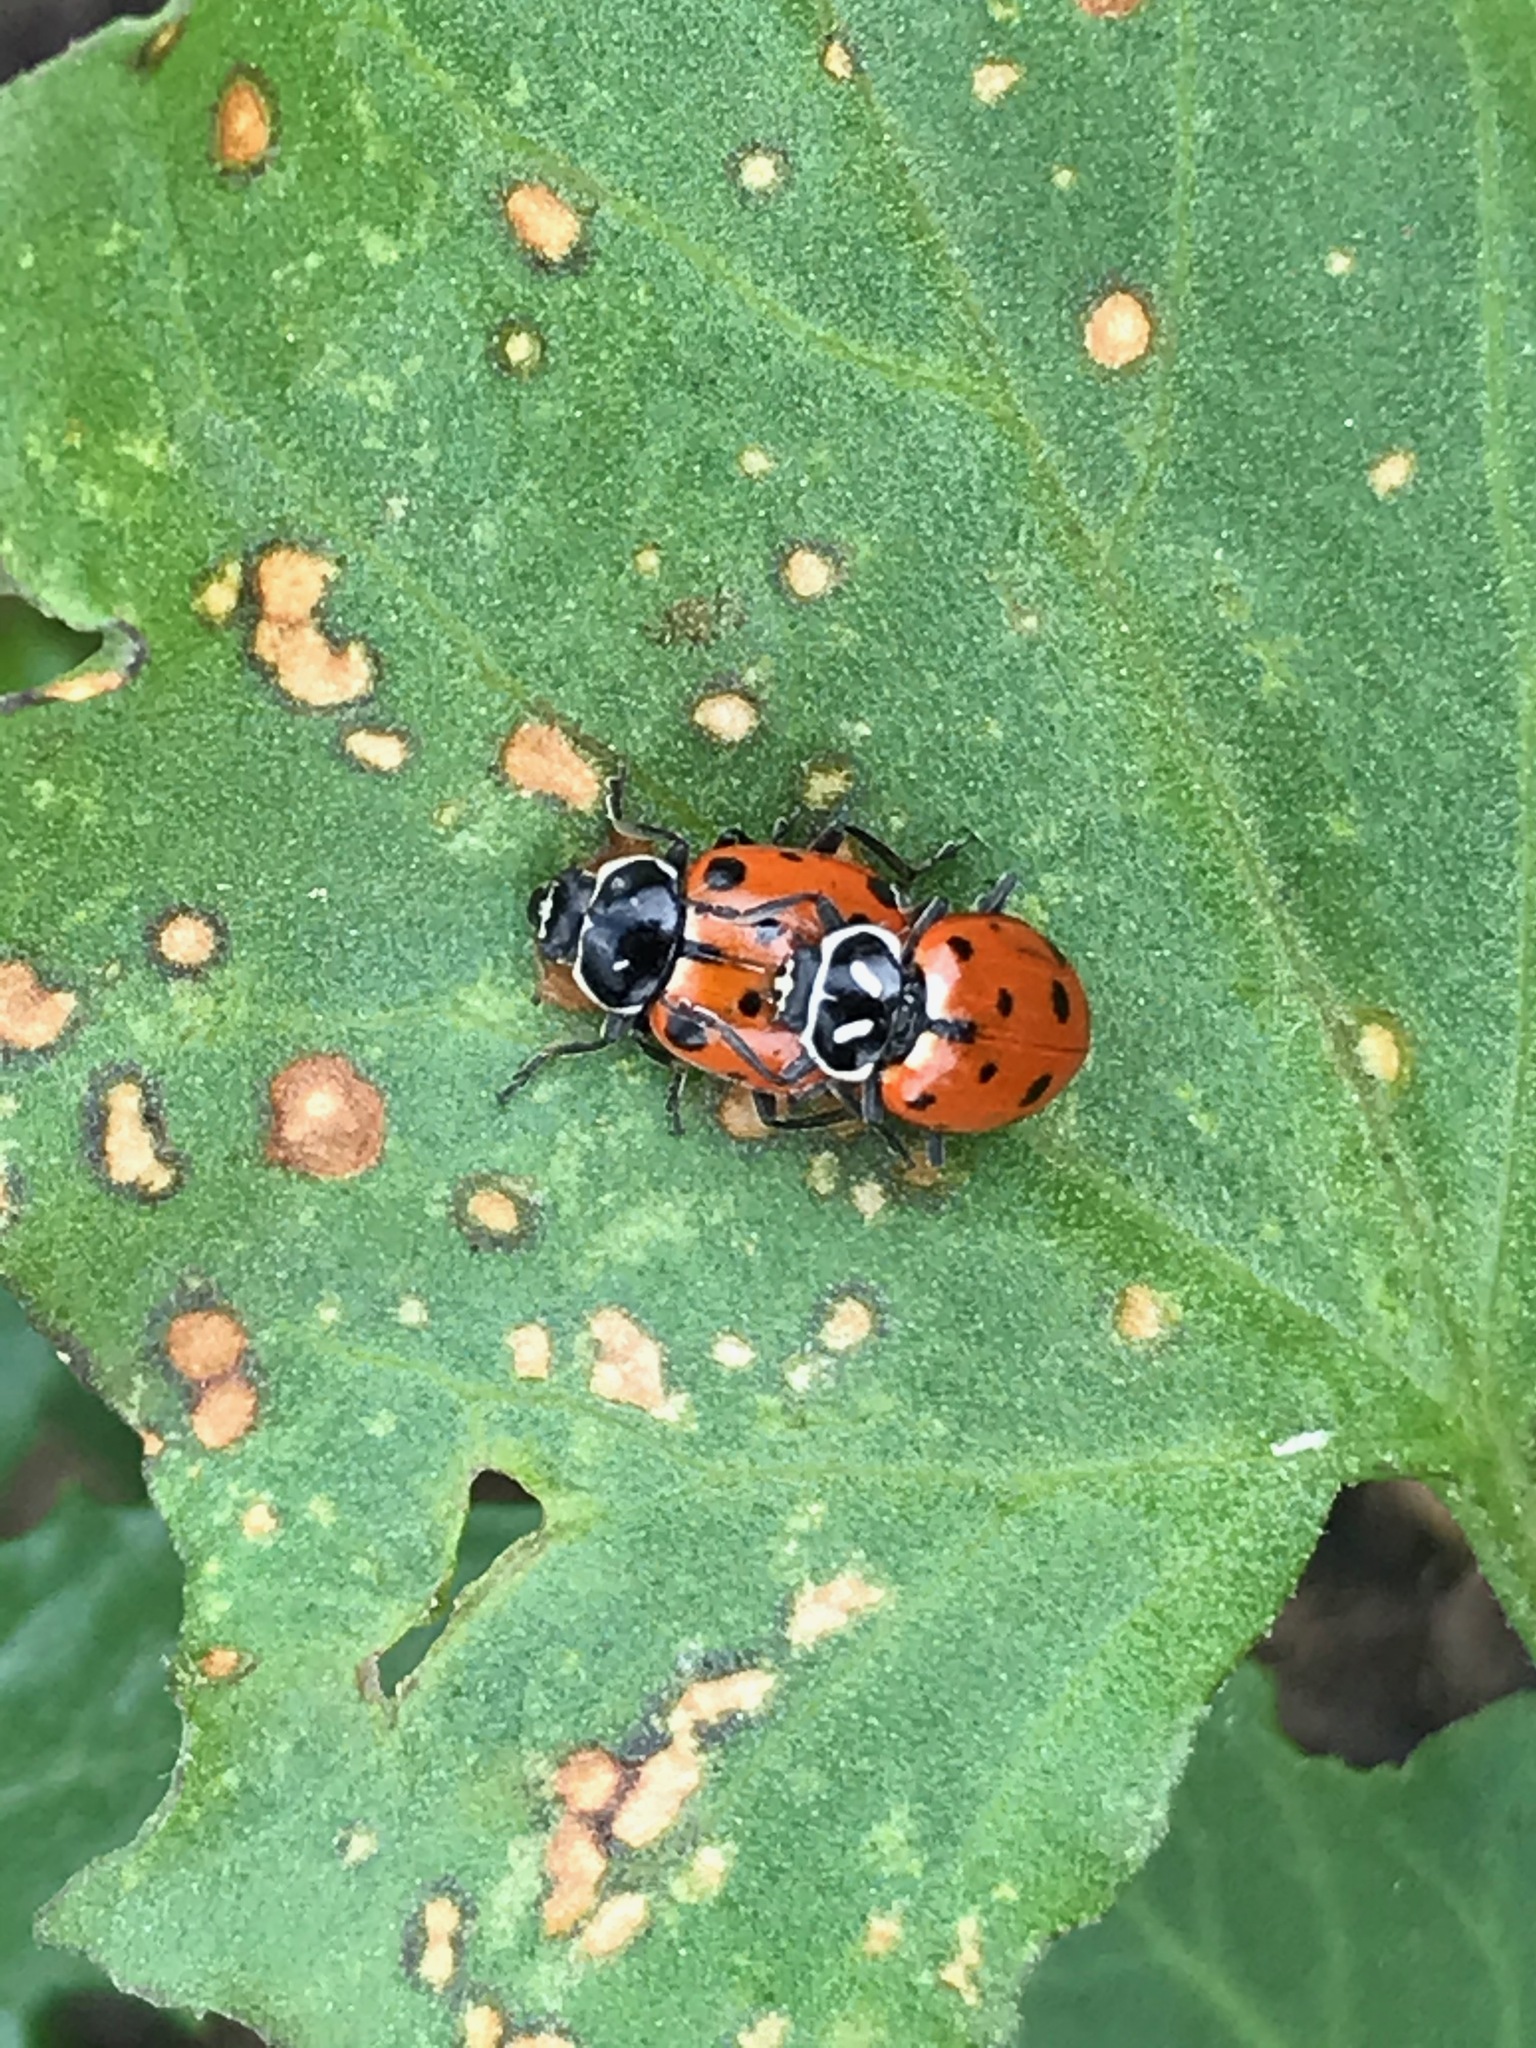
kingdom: Animalia
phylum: Arthropoda
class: Insecta
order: Coleoptera
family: Coccinellidae
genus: Hippodamia
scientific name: Hippodamia convergens
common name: Convergent lady beetle
